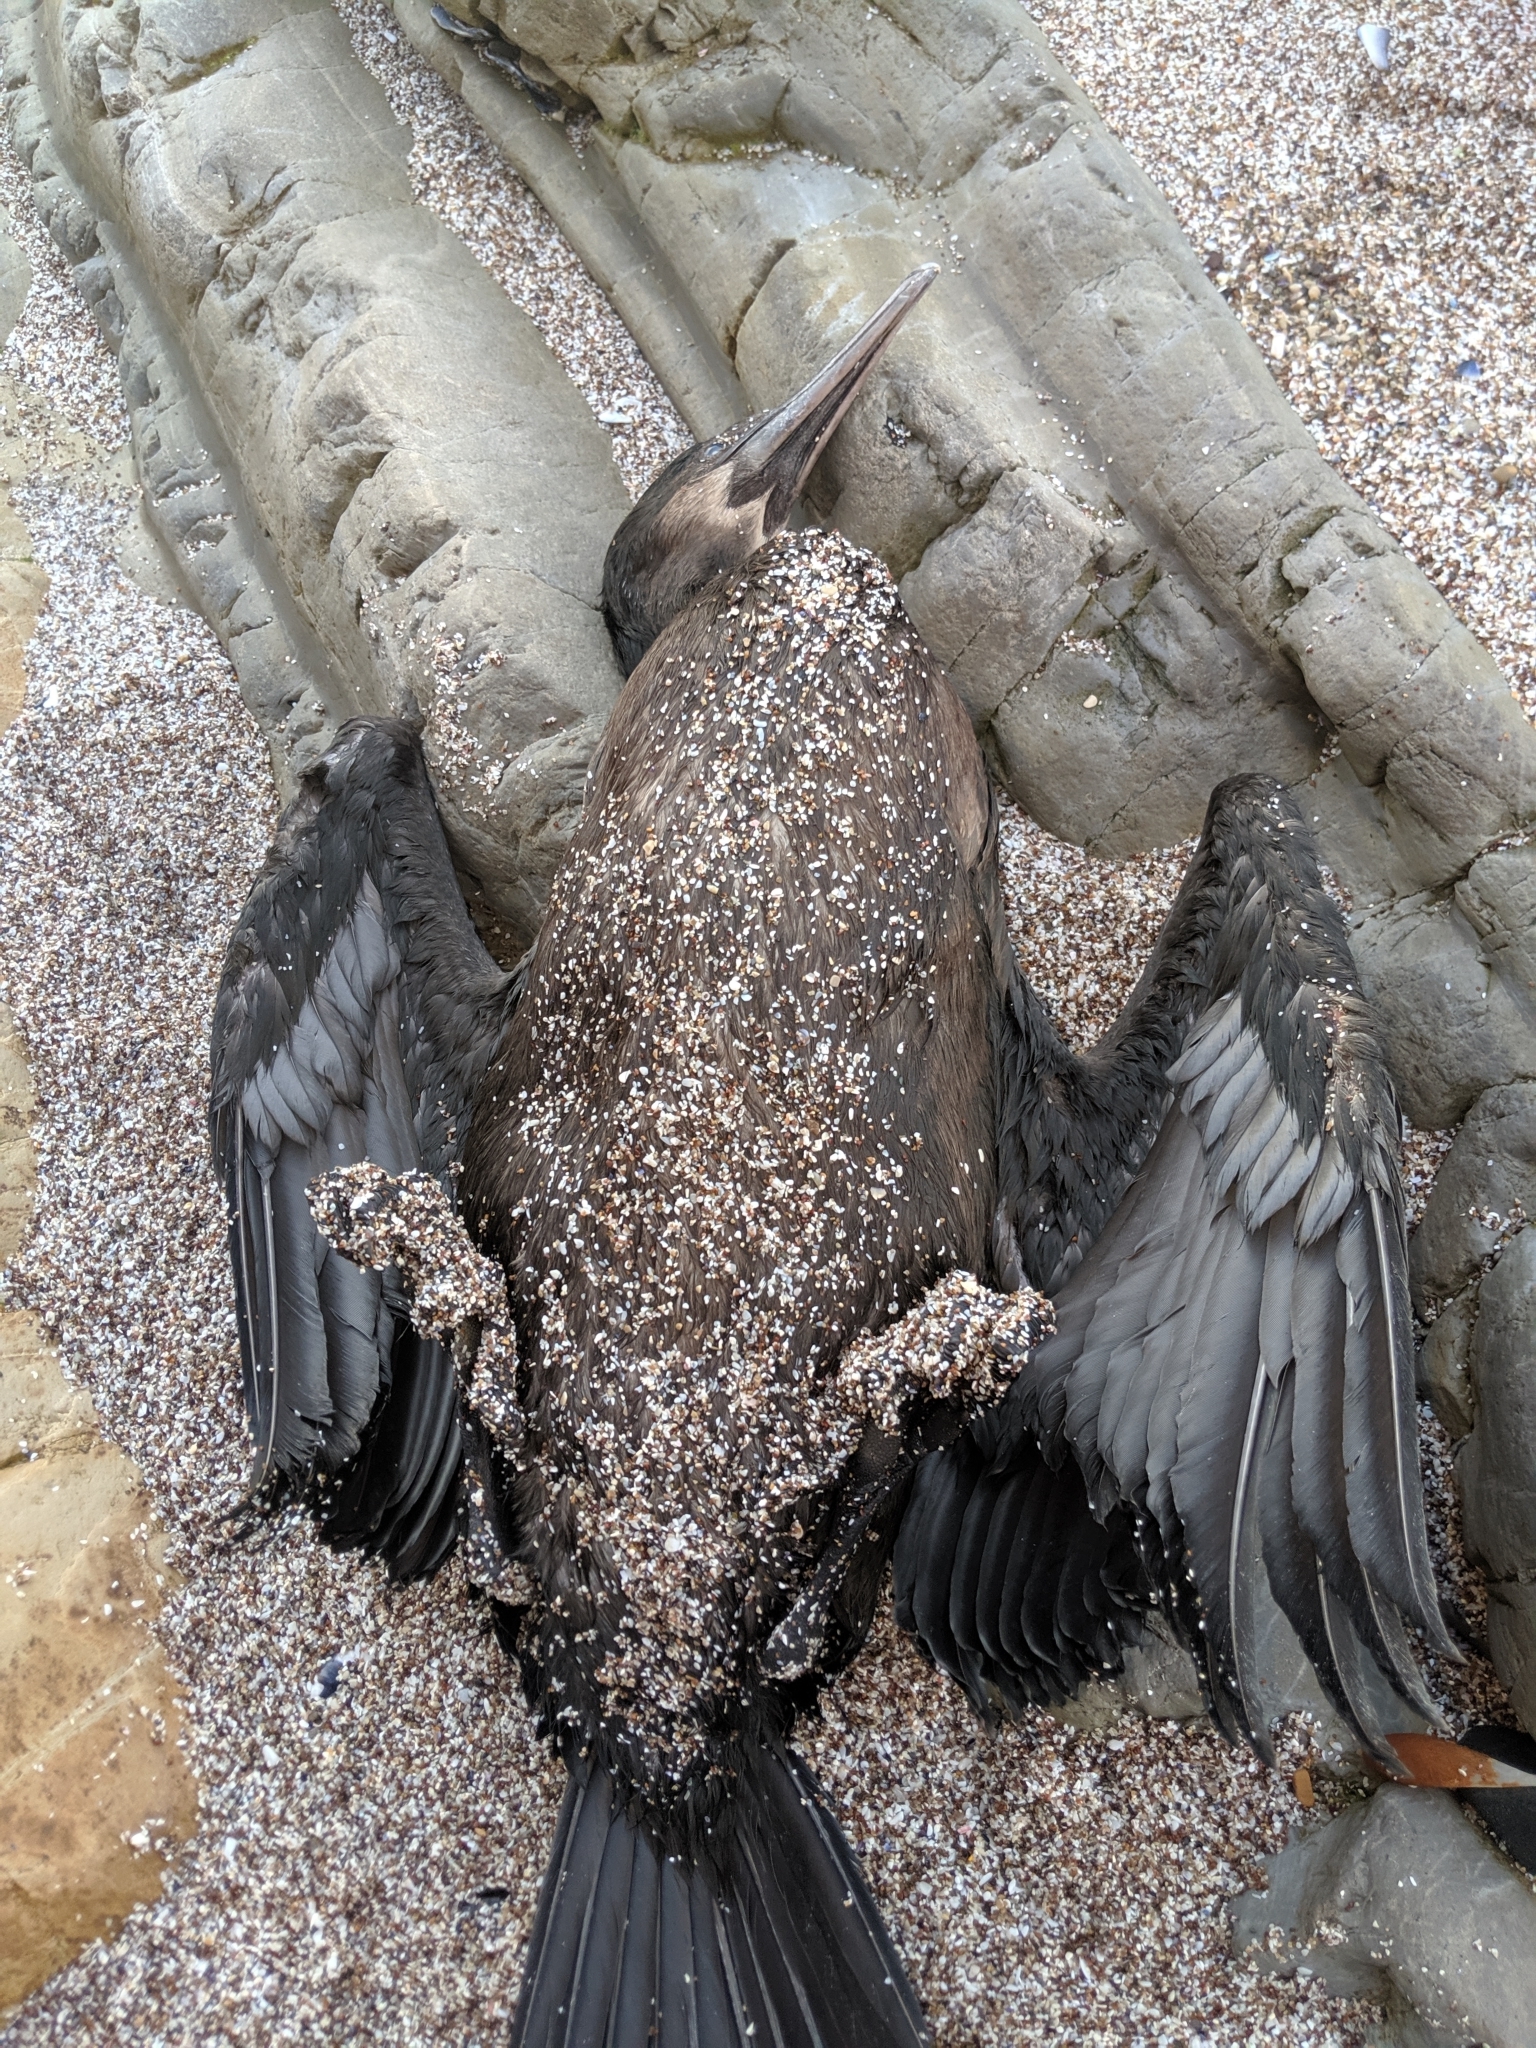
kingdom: Animalia
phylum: Chordata
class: Aves
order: Suliformes
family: Phalacrocoracidae
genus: Urile
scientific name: Urile penicillatus
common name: Brandt's cormorant
